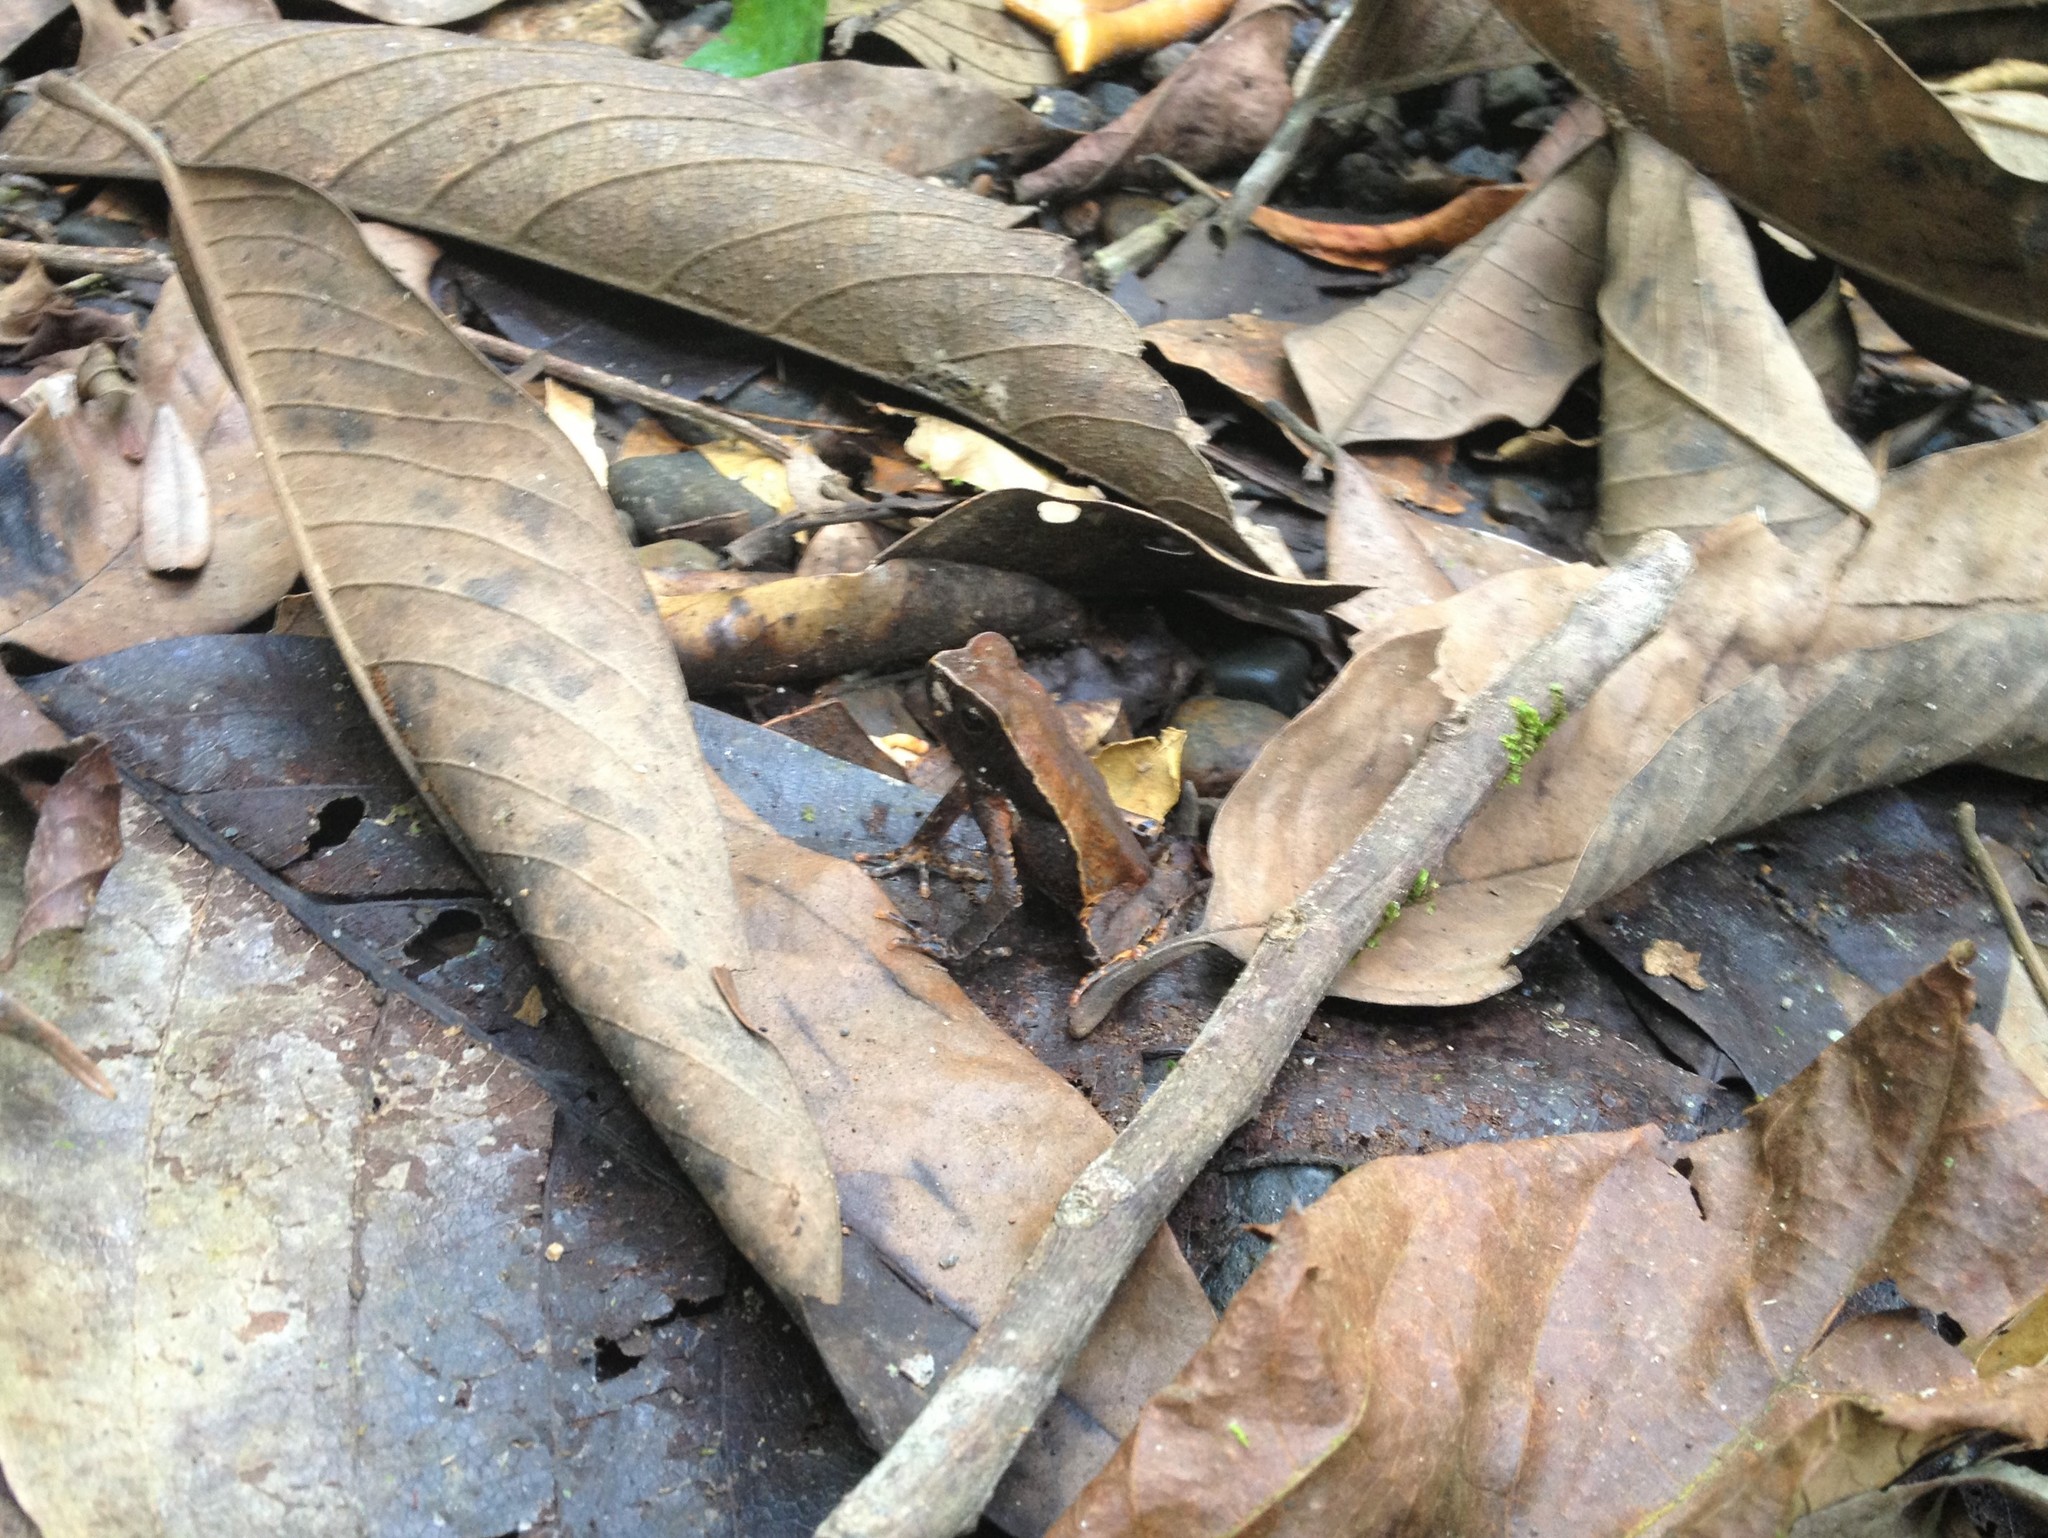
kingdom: Animalia
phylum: Chordata
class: Amphibia
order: Anura
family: Bufonidae
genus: Rhaebo
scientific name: Rhaebo haematiticus
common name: Truando toad
